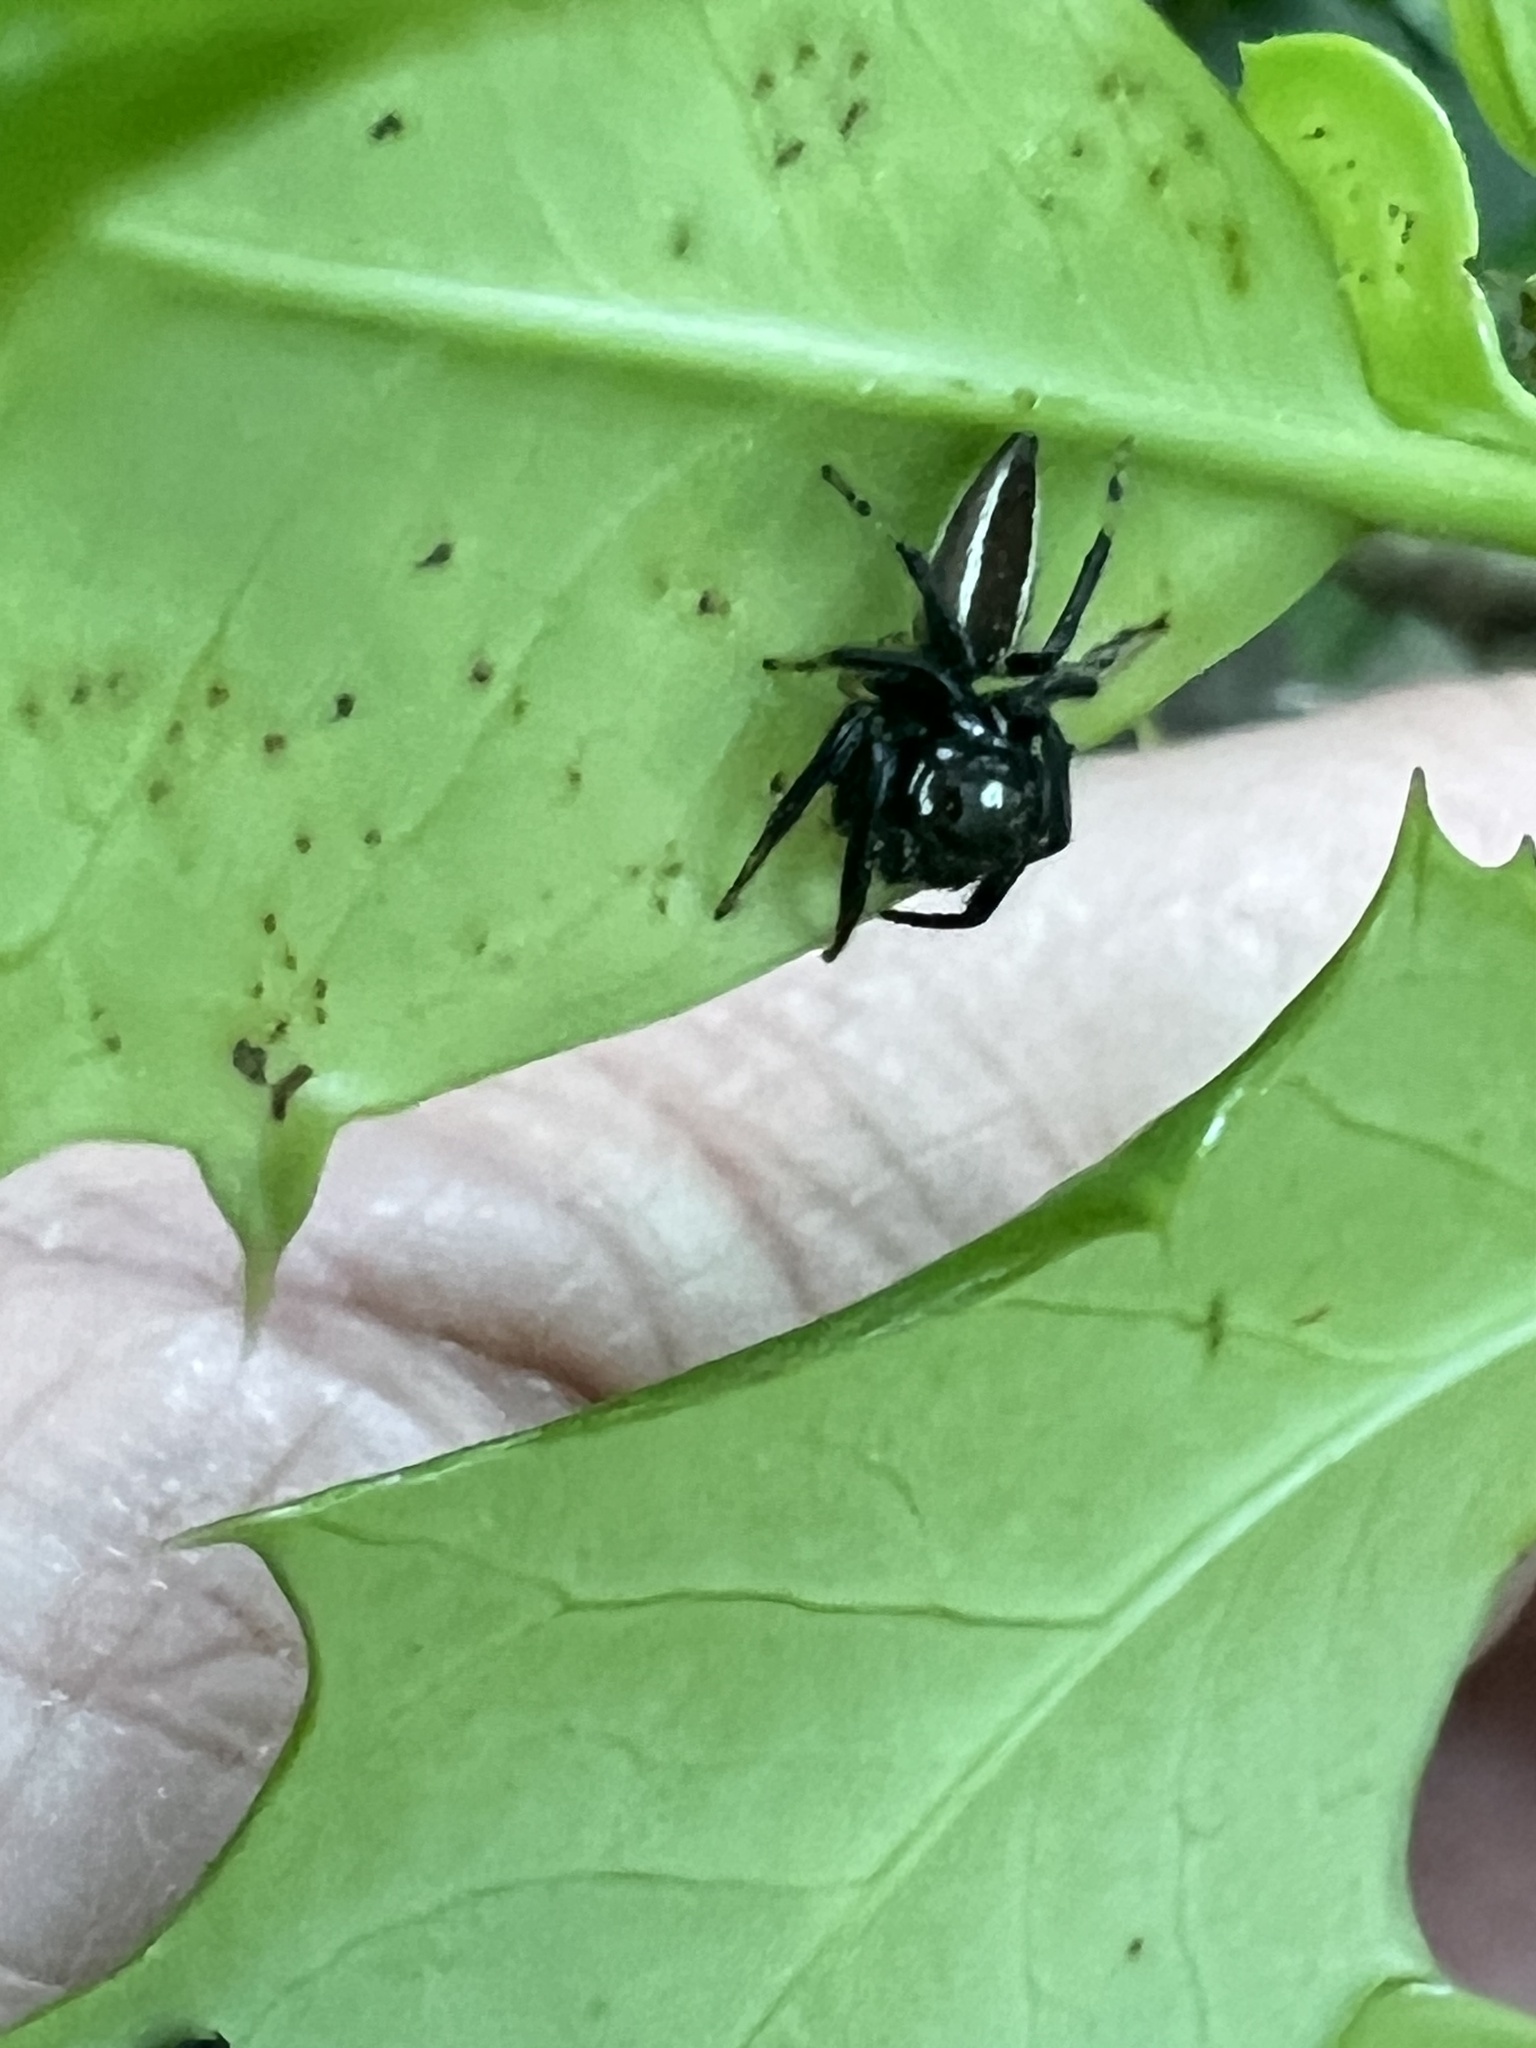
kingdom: Animalia
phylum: Arthropoda
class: Arachnida
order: Araneae
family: Salticidae
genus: Colonus
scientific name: Colonus sylvanus
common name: Jumping spiders
